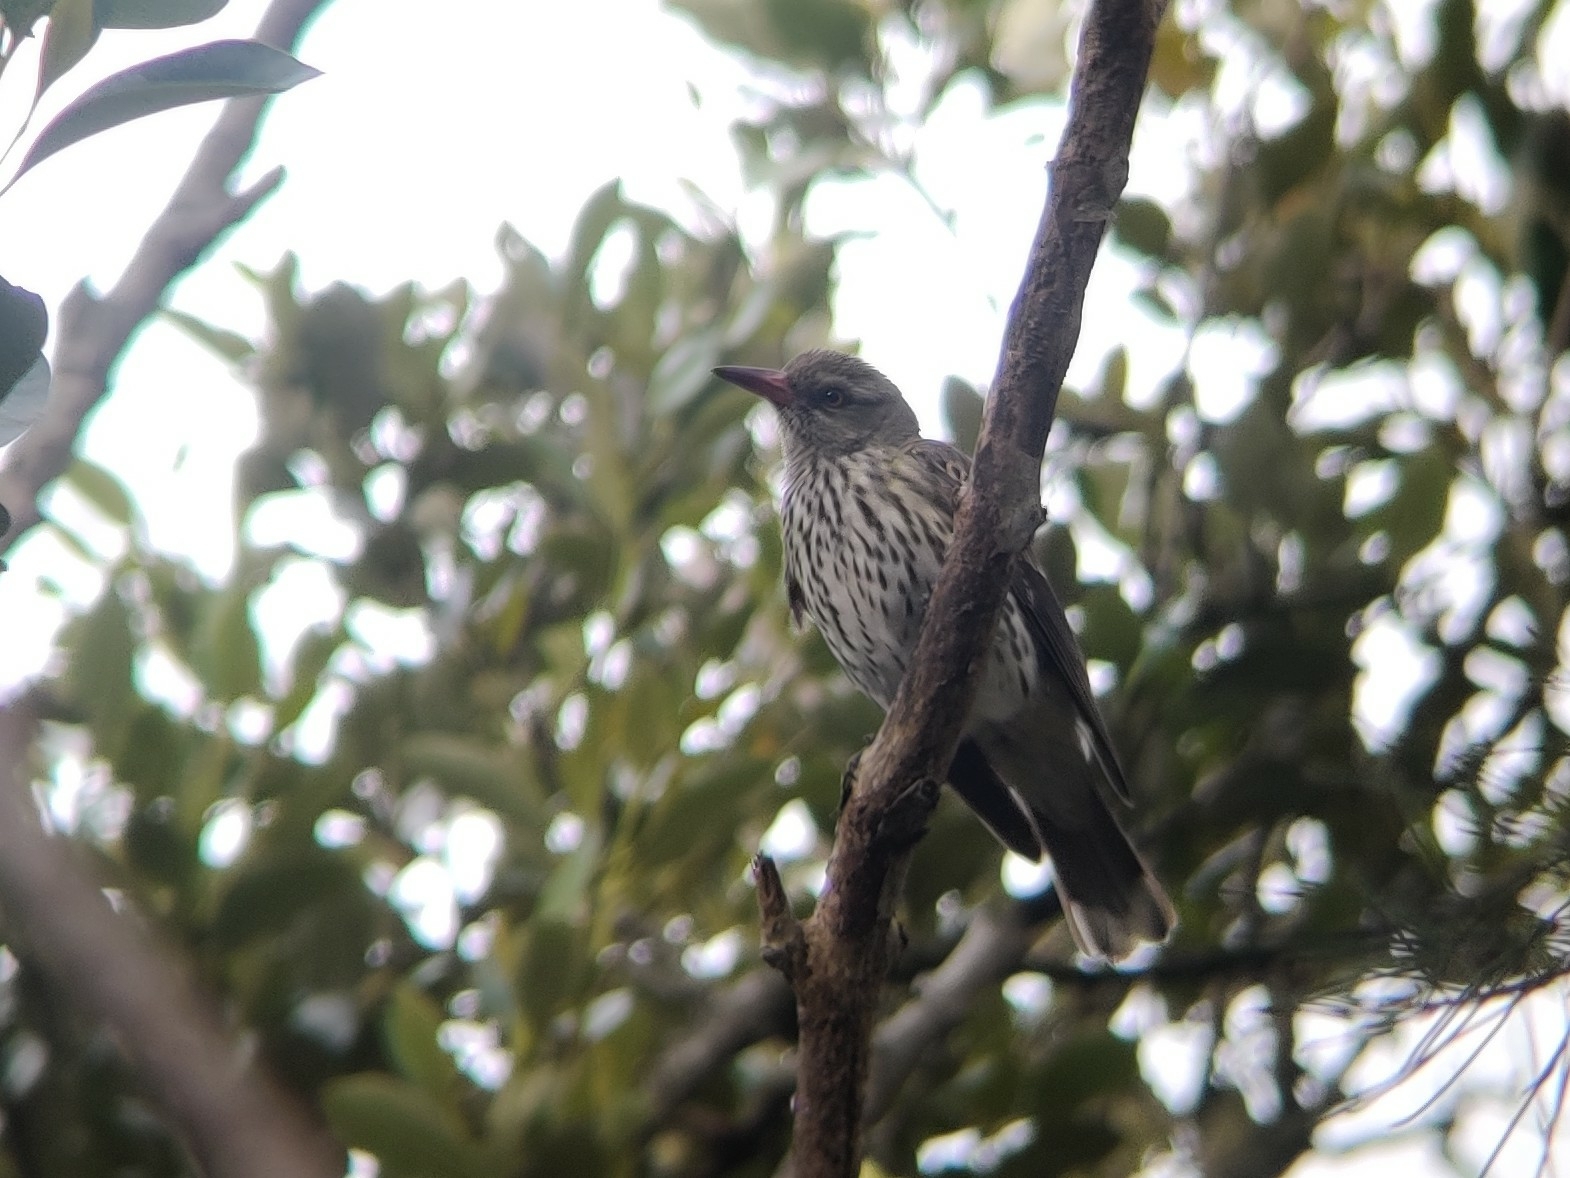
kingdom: Animalia
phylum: Chordata
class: Aves
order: Passeriformes
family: Oriolidae
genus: Oriolus
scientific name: Oriolus sagittatus
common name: Olive-backed oriole
